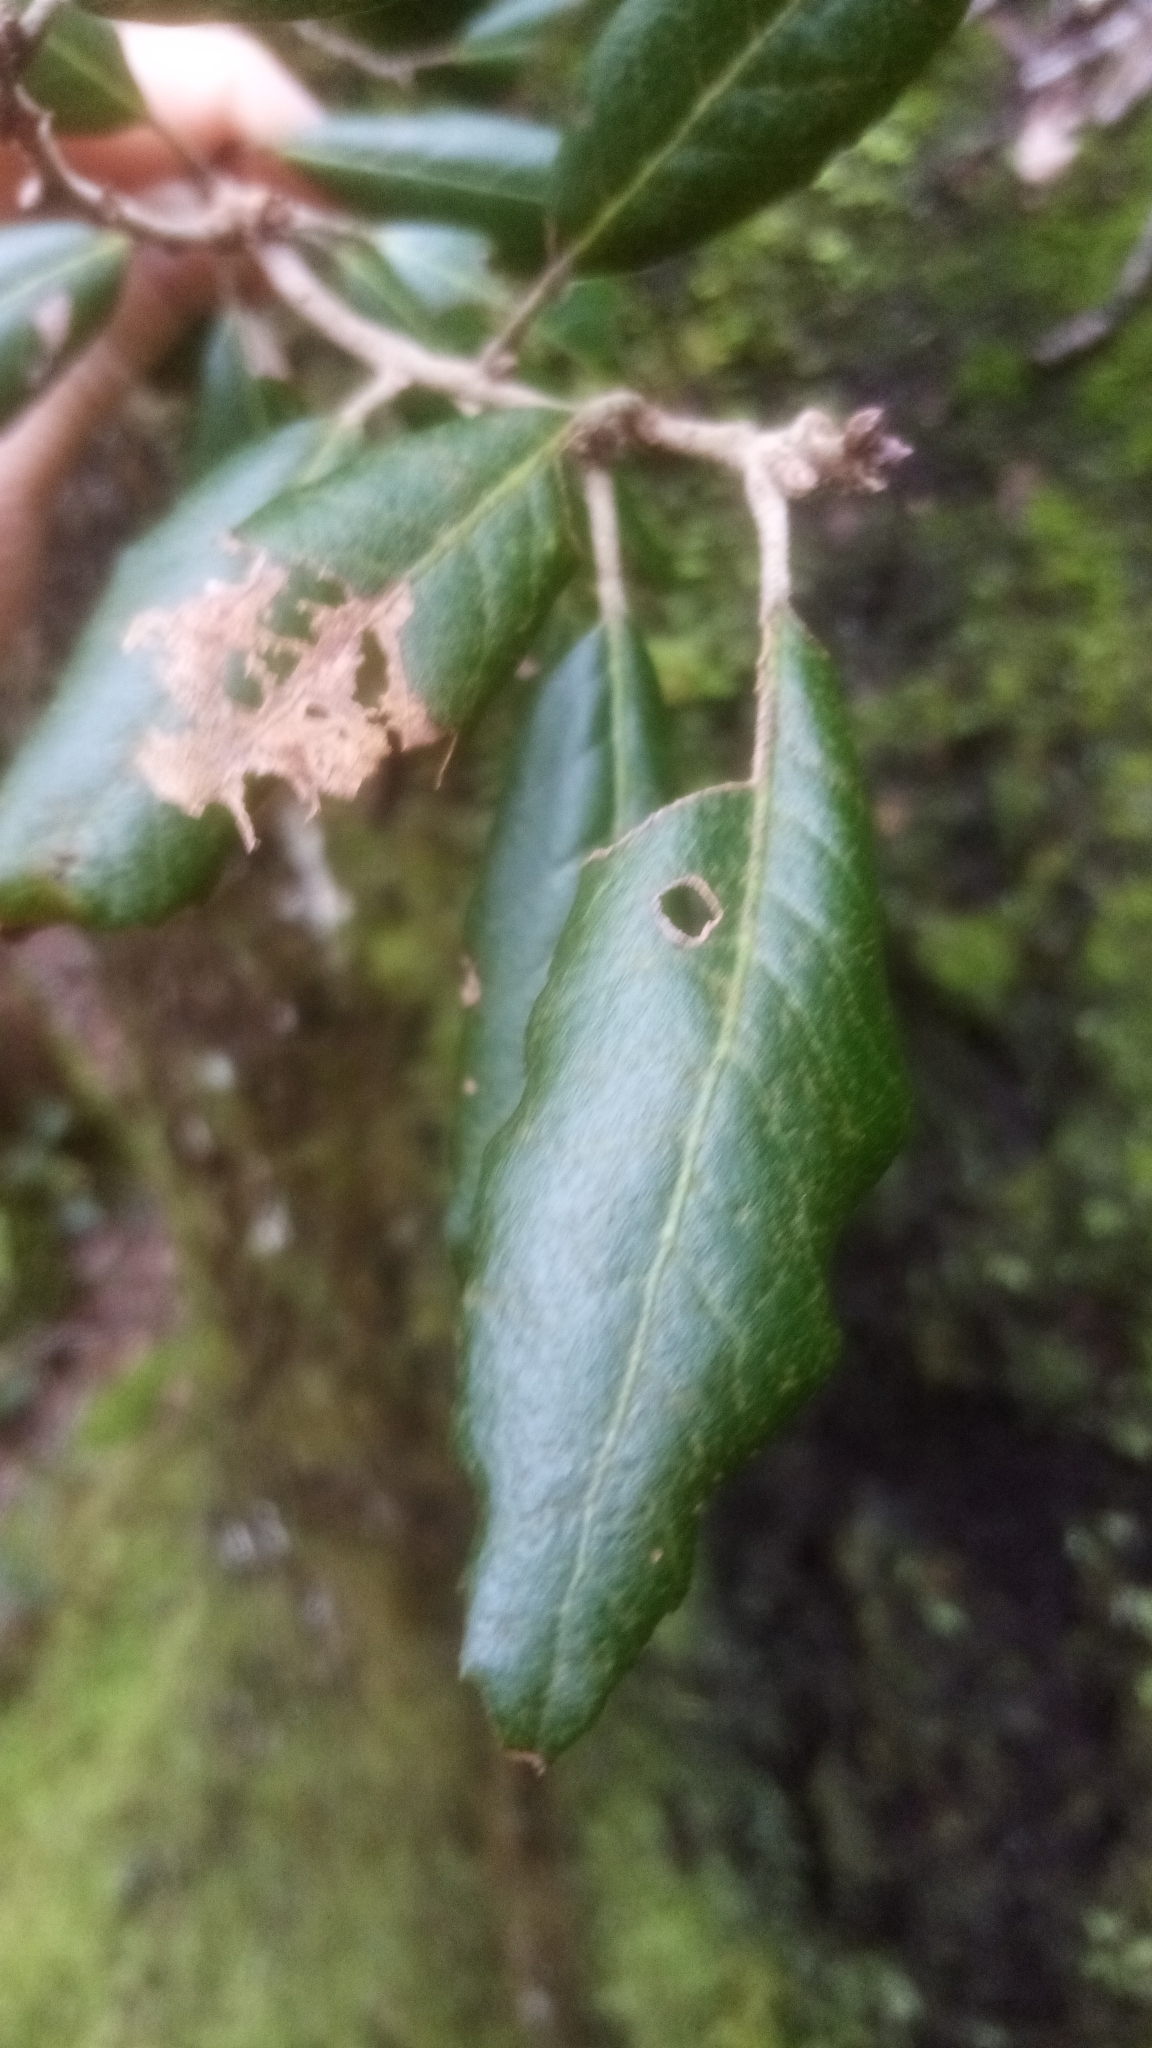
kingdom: Plantae
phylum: Tracheophyta
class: Magnoliopsida
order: Fagales
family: Fagaceae
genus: Quercus
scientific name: Quercus ilex
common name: Evergreen oak
